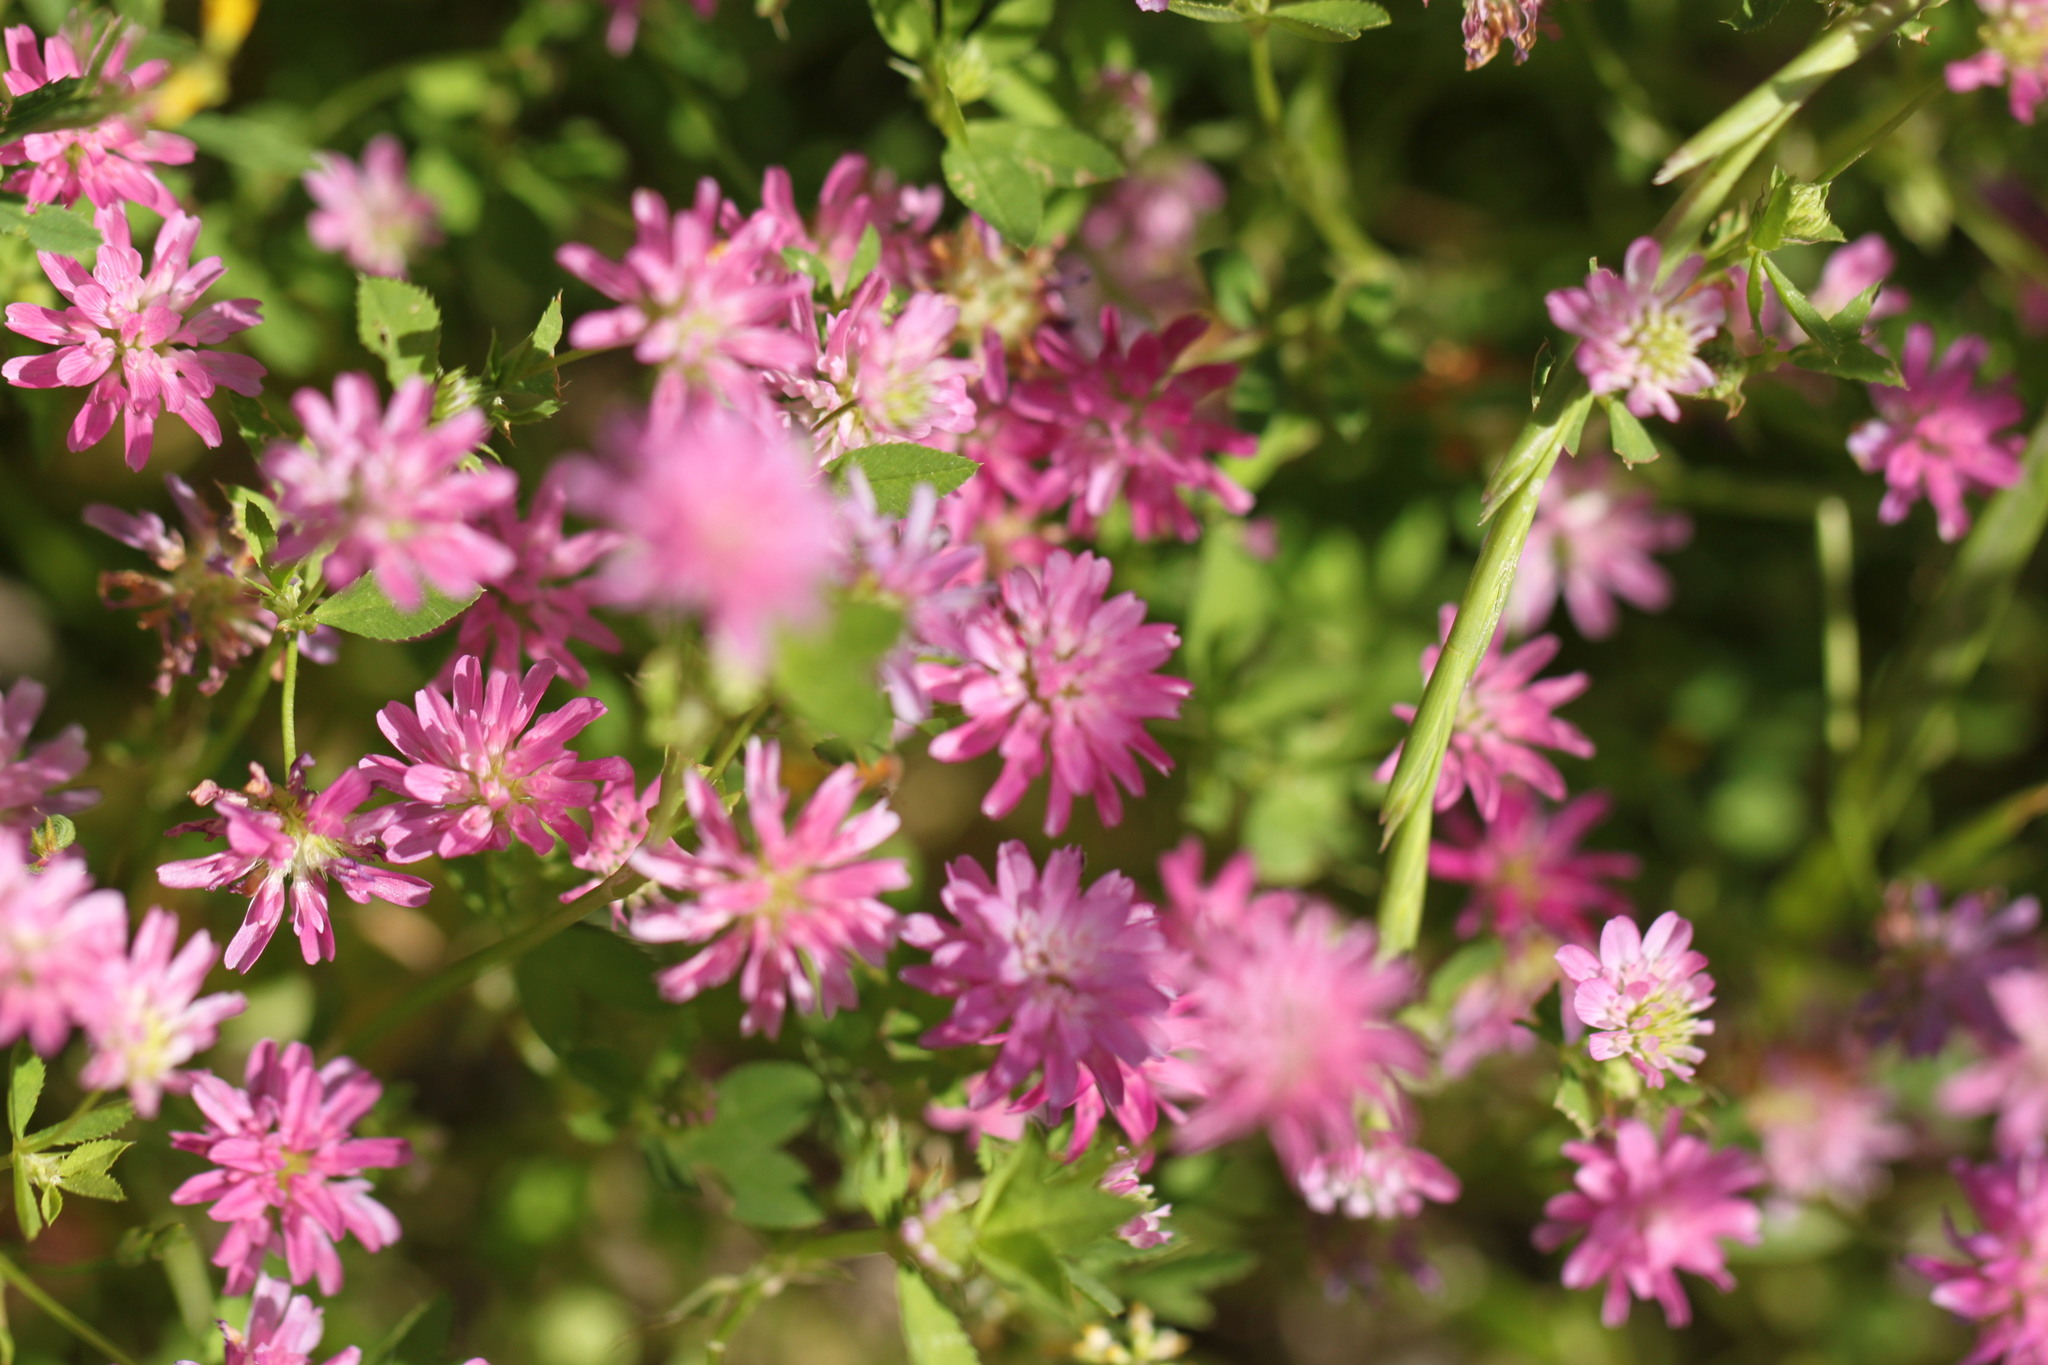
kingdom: Plantae
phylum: Tracheophyta
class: Magnoliopsida
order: Fabales
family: Fabaceae
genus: Trifolium
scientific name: Trifolium resupinatum
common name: Reversed clover
